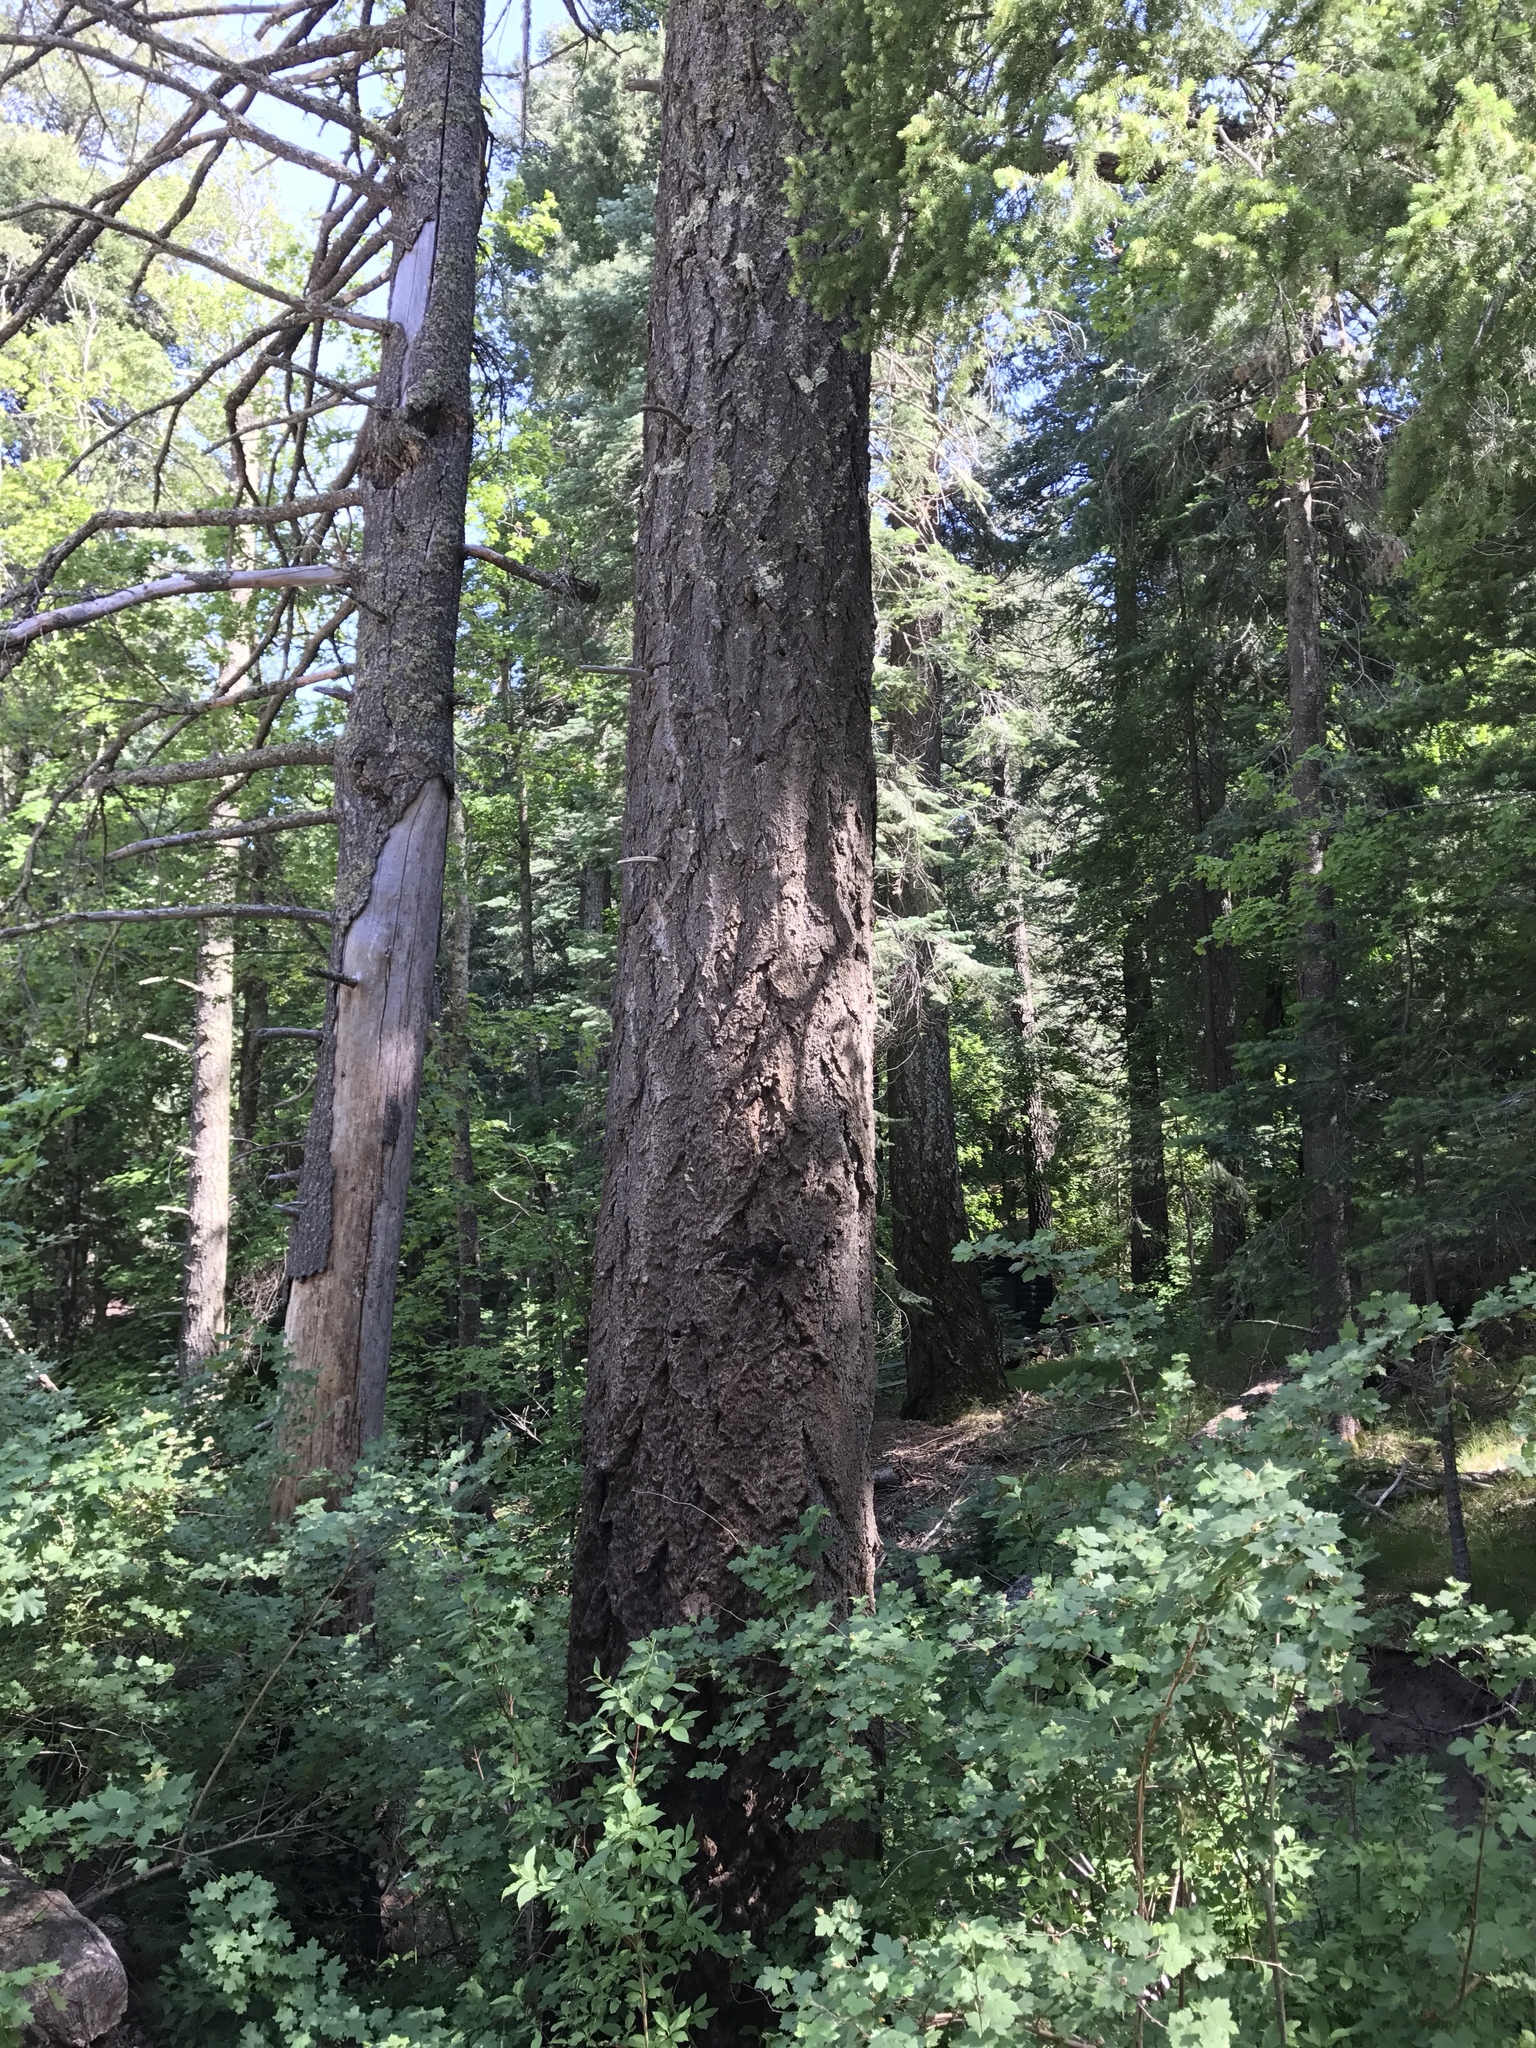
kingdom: Plantae
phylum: Tracheophyta
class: Pinopsida
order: Pinales
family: Pinaceae
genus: Pseudotsuga
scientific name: Pseudotsuga menziesii
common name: Douglas fir
